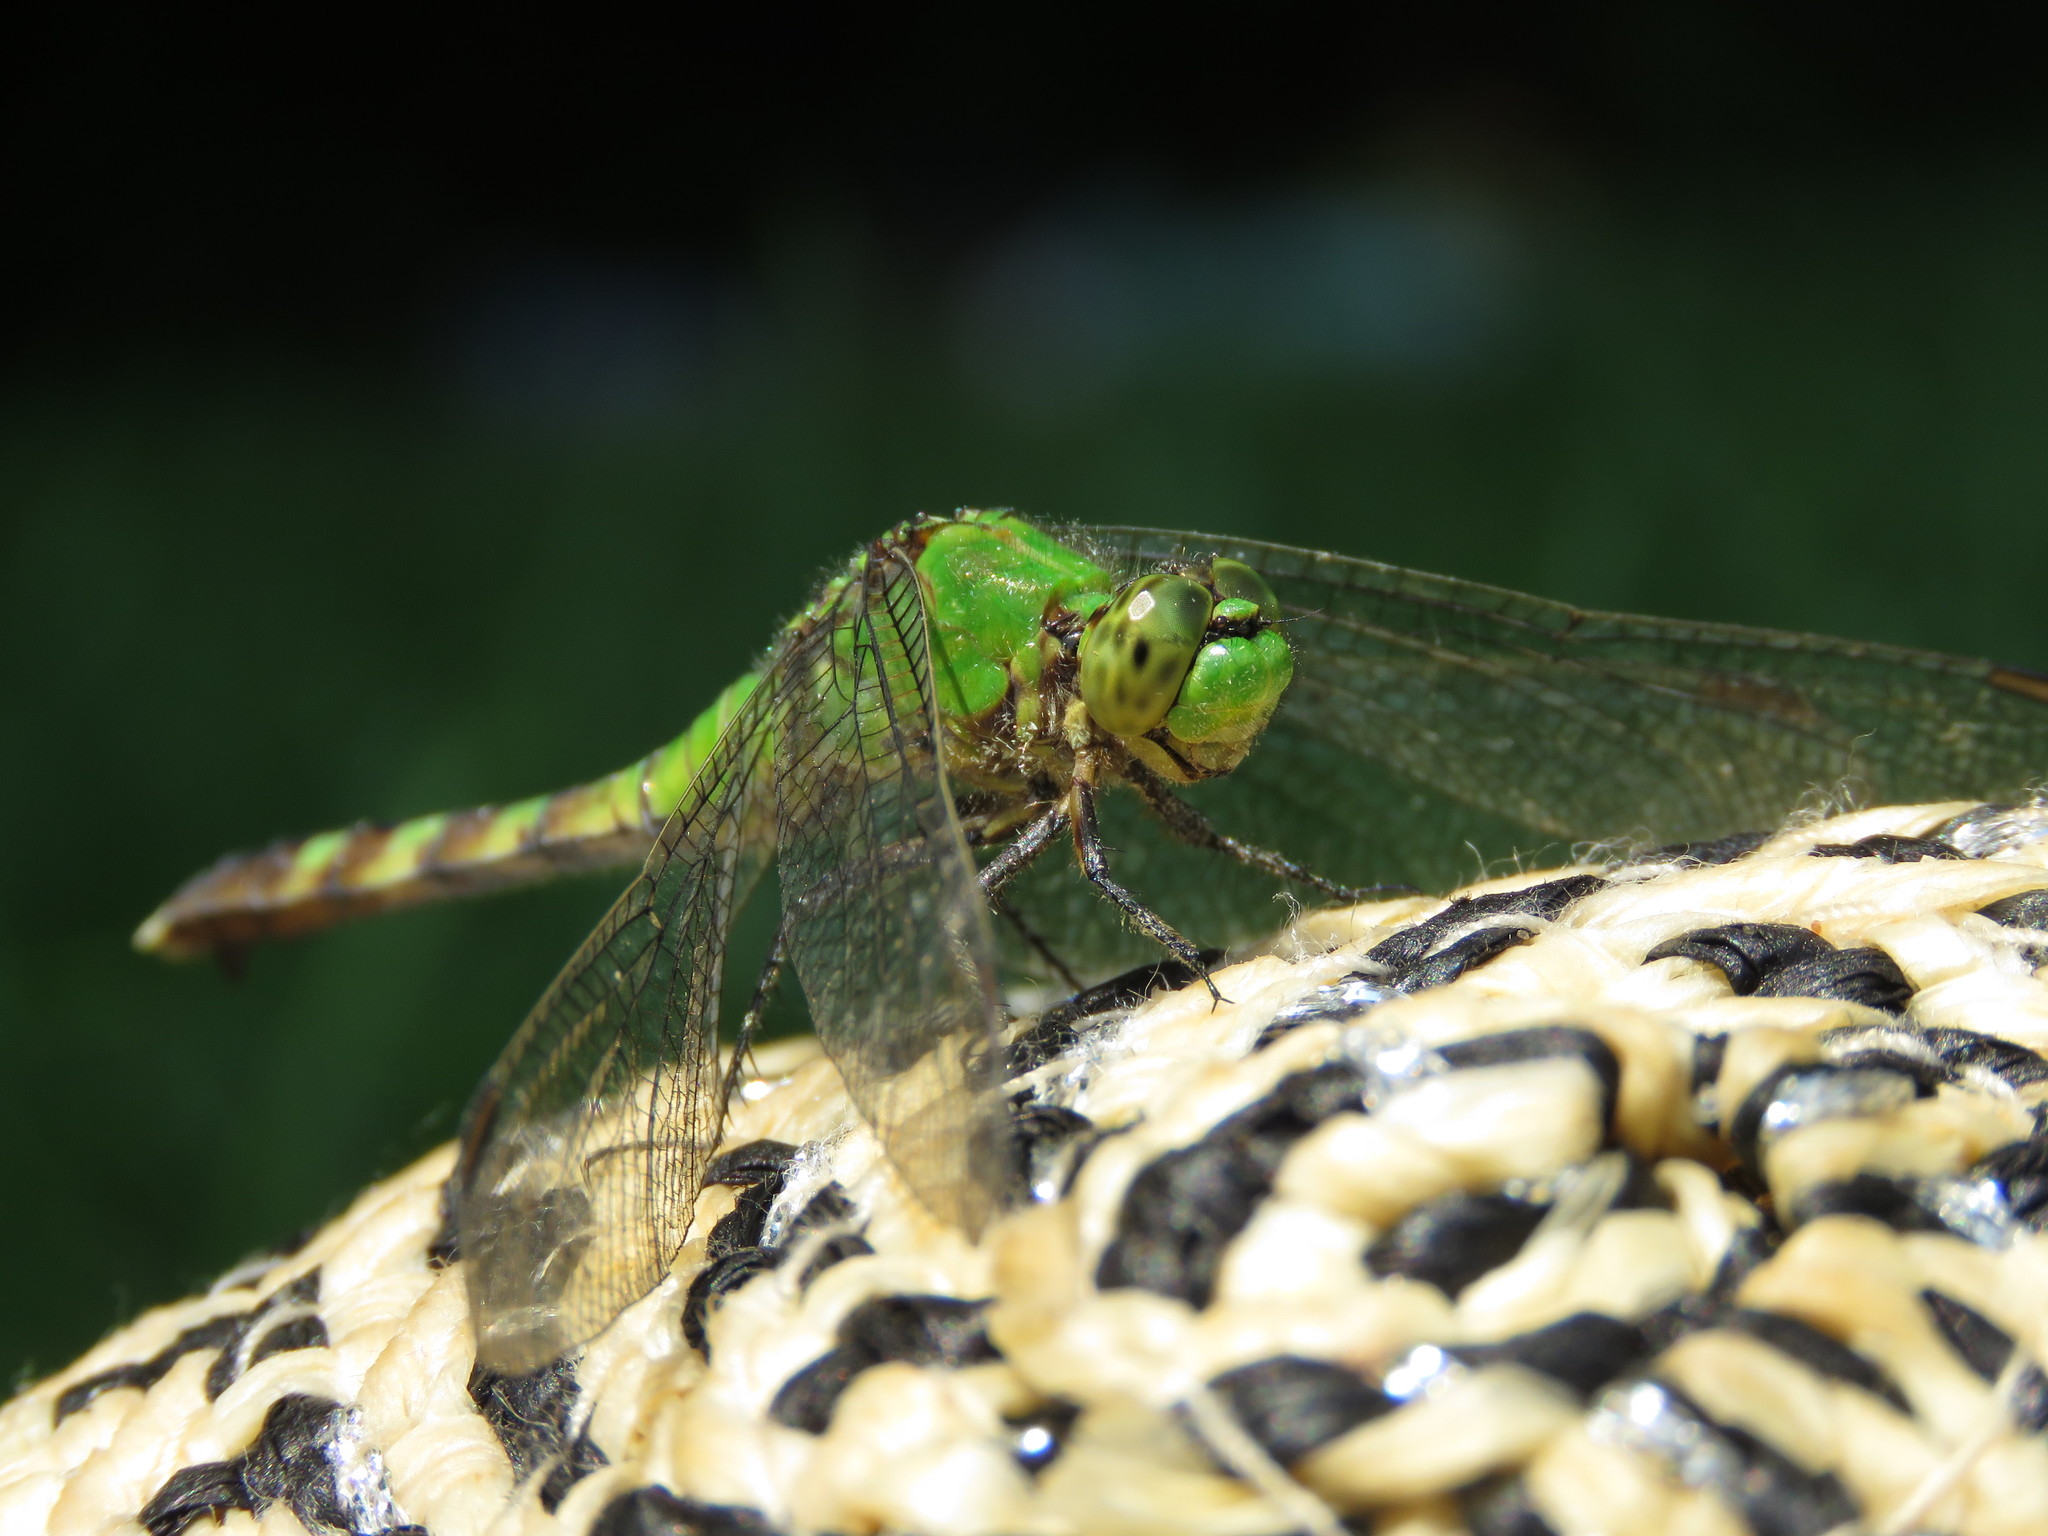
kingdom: Animalia
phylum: Arthropoda
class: Insecta
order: Odonata
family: Libellulidae
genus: Erythemis
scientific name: Erythemis simplicicollis
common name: Eastern pondhawk
